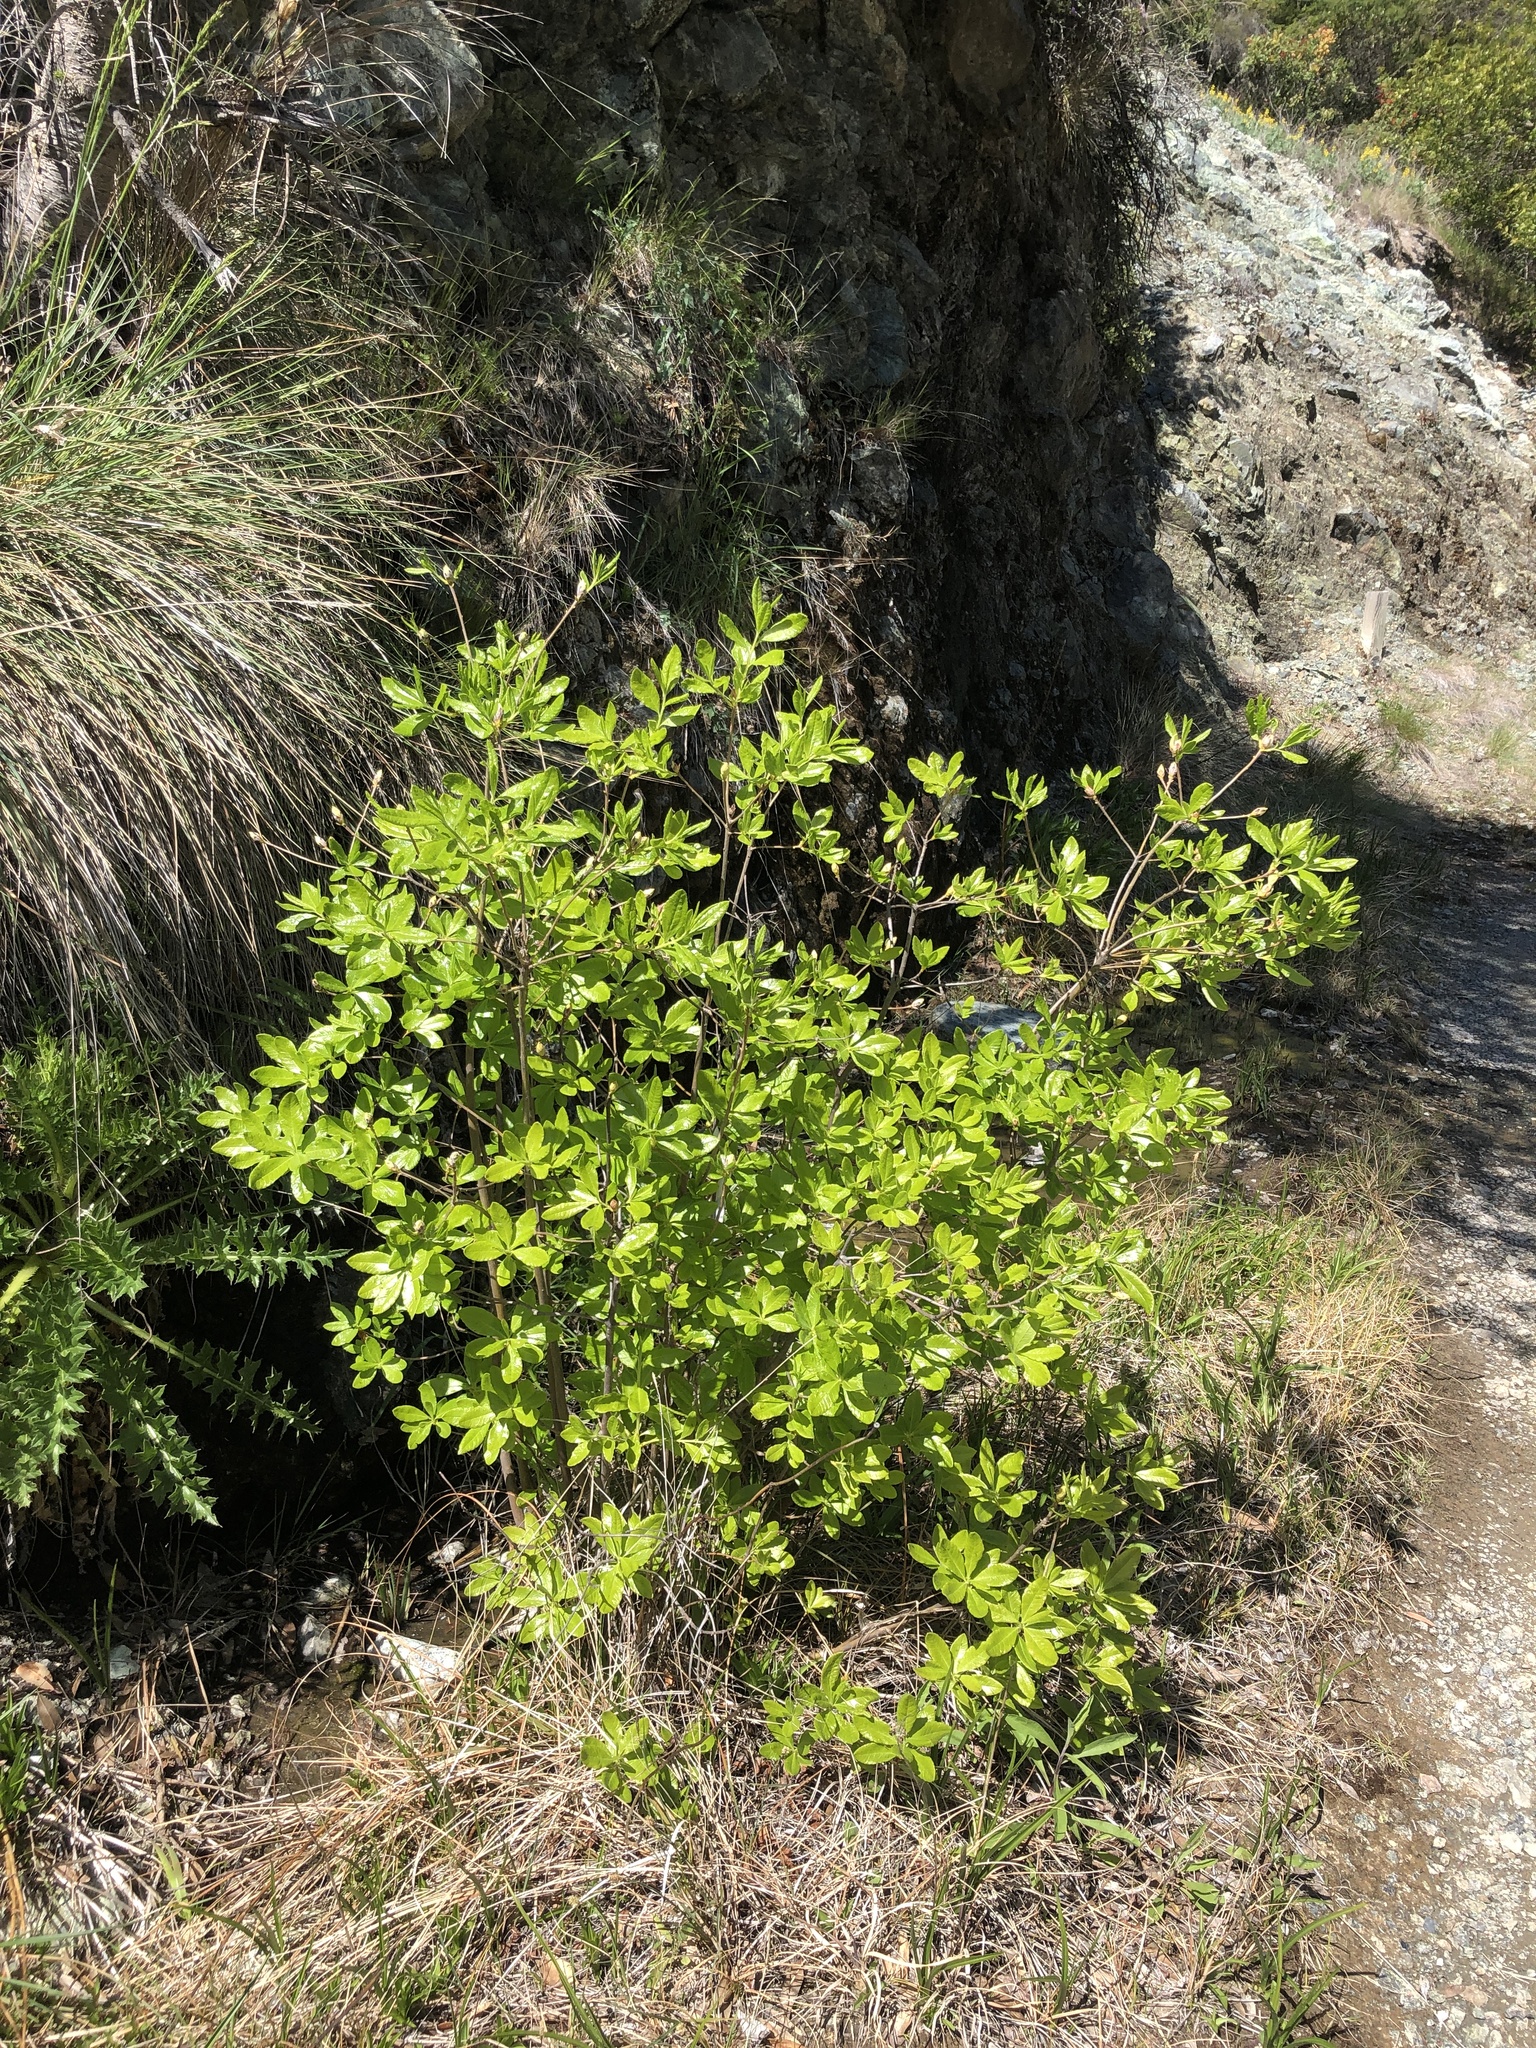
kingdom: Plantae
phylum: Tracheophyta
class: Magnoliopsida
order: Ericales
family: Ericaceae
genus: Rhododendron
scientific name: Rhododendron occidentale
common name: Western azalea
